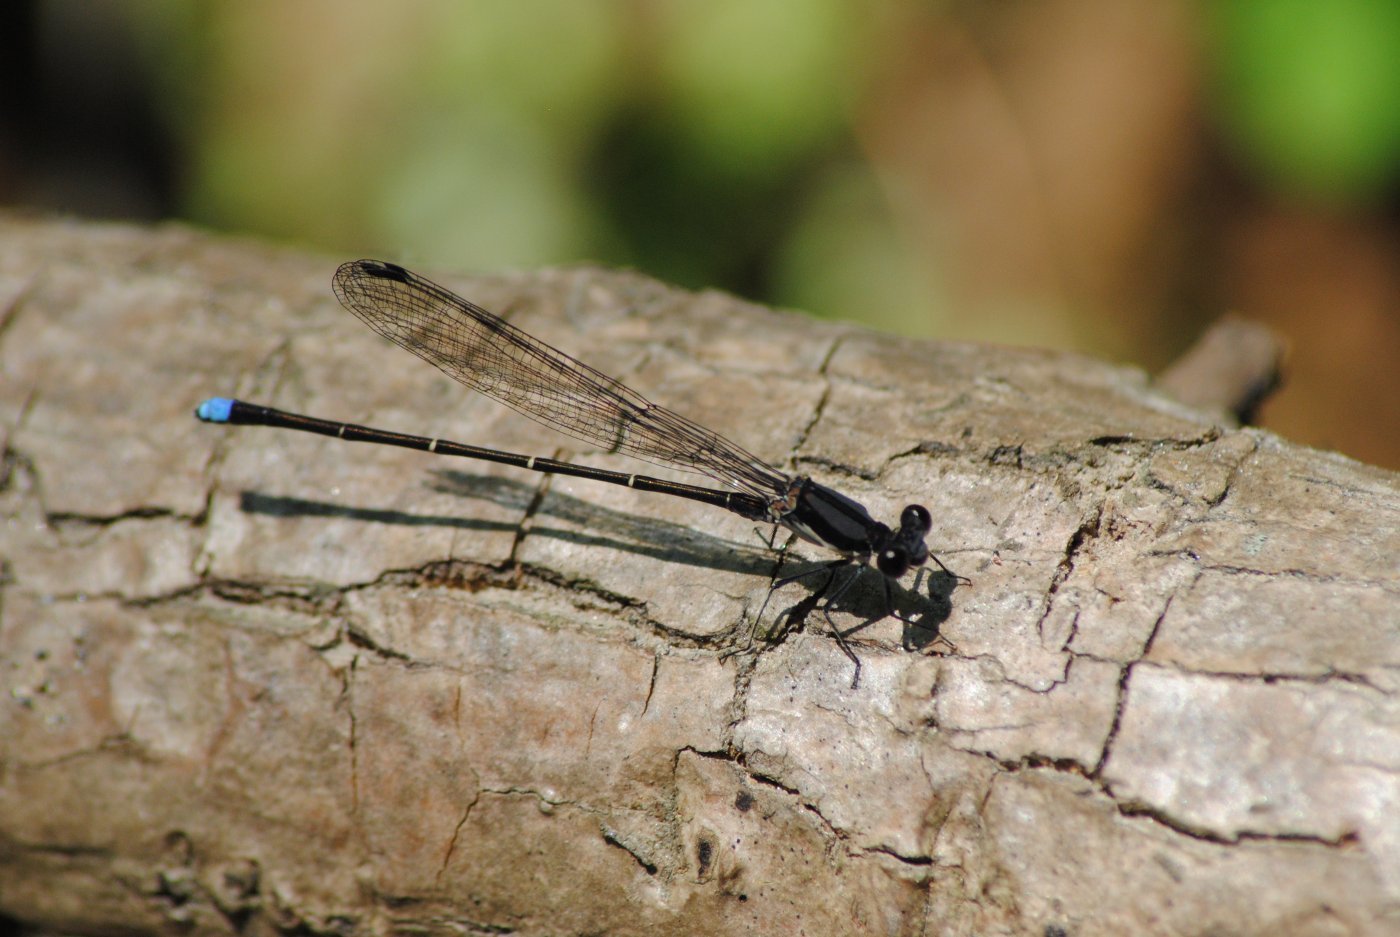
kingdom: Animalia
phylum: Arthropoda
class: Insecta
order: Odonata
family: Coenagrionidae
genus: Argia
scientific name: Argia tibialis
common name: Blue-tipped dancer
